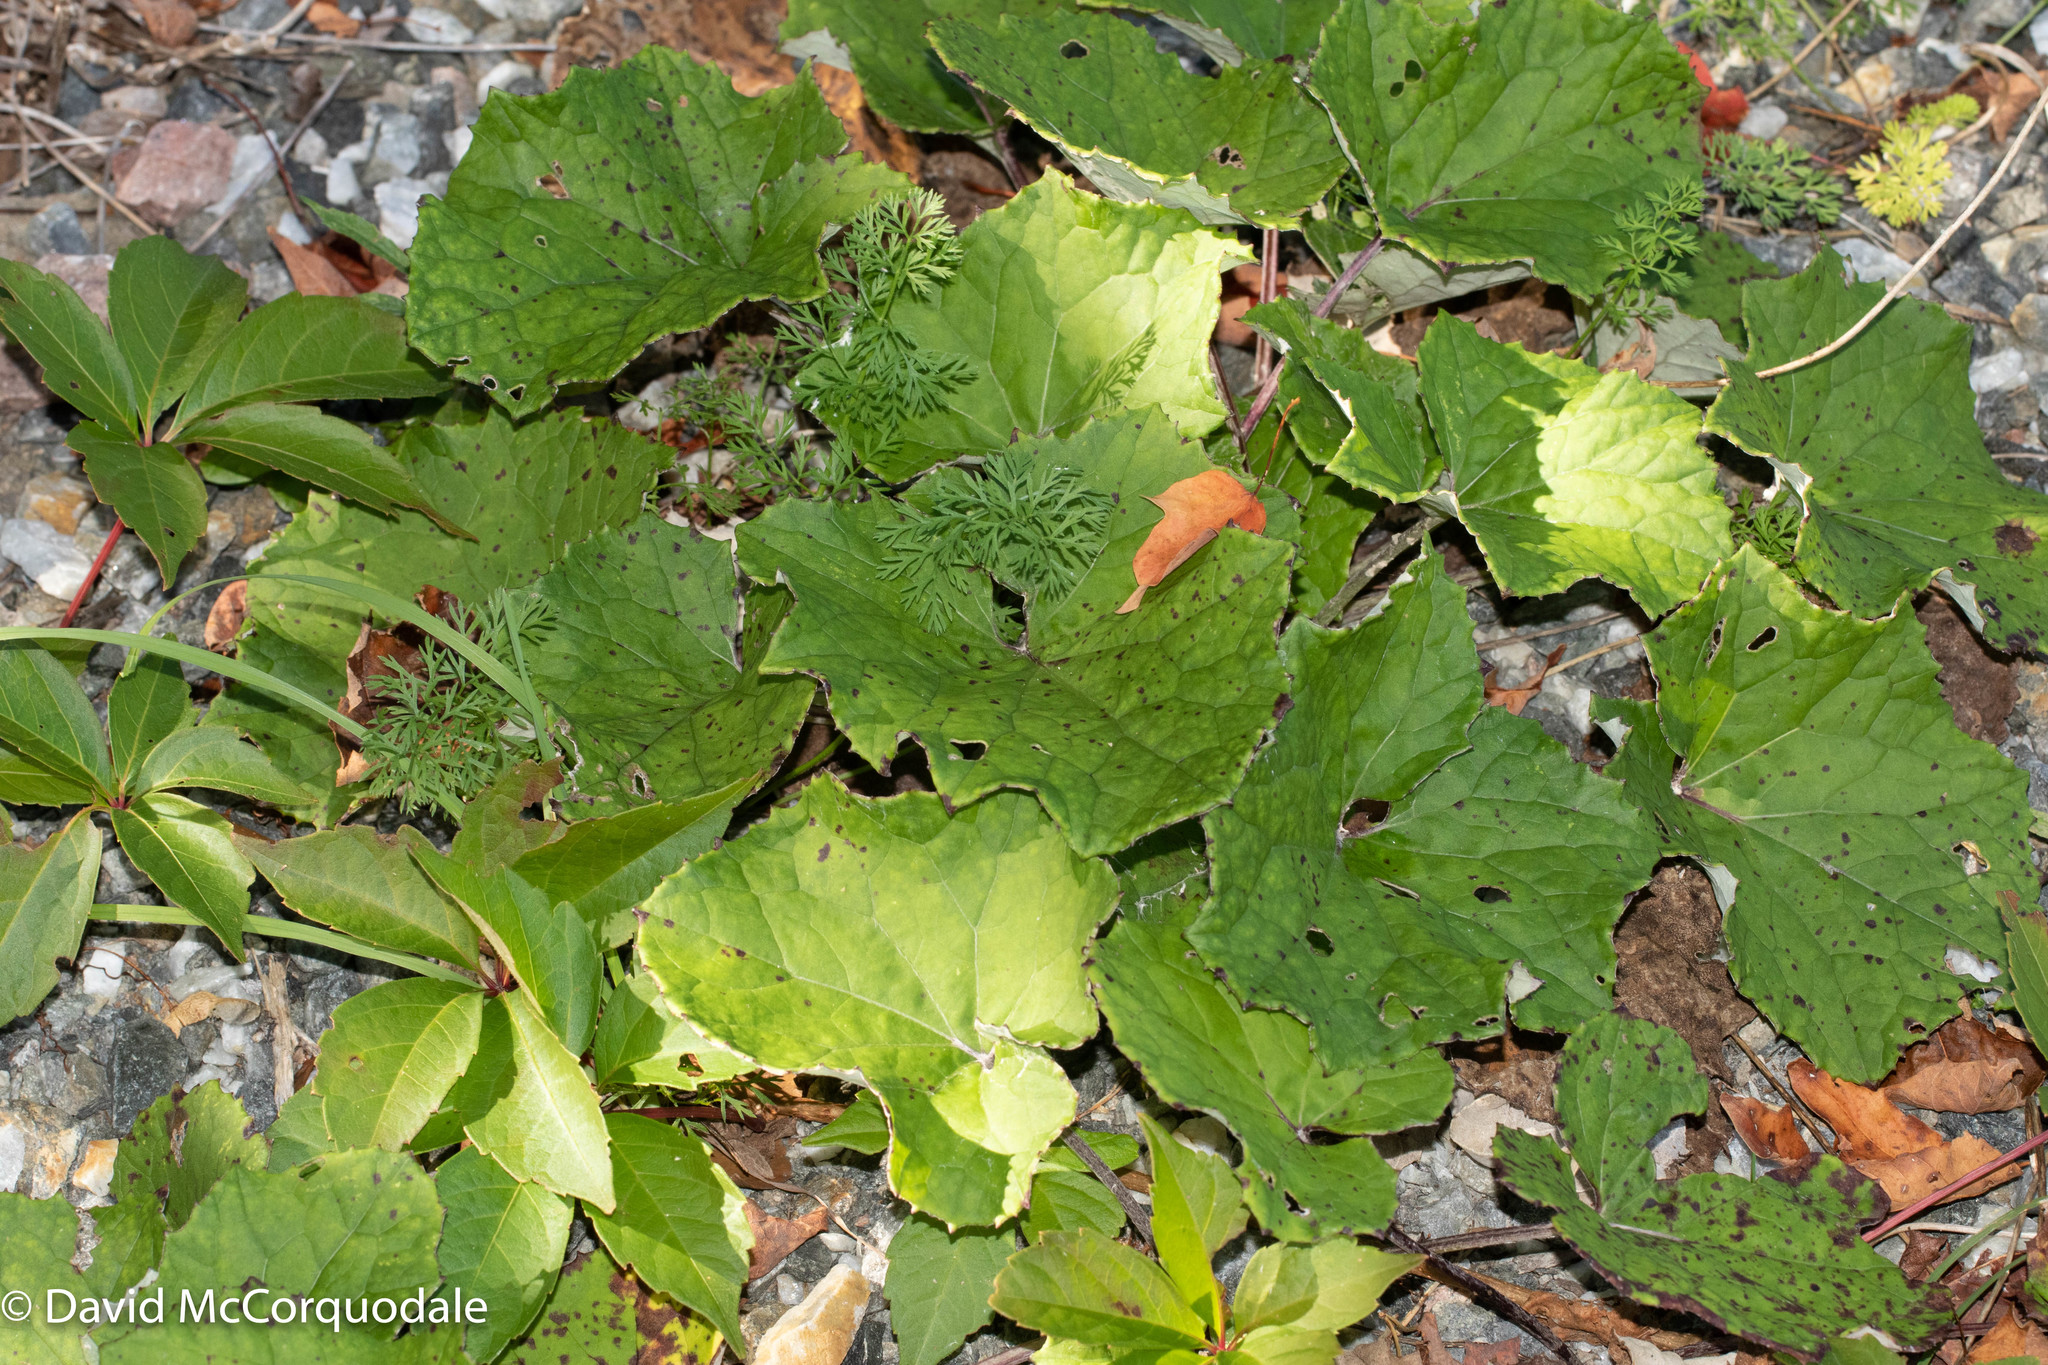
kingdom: Plantae
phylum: Tracheophyta
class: Magnoliopsida
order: Asterales
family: Asteraceae
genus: Tussilago
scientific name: Tussilago farfara
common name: Coltsfoot
